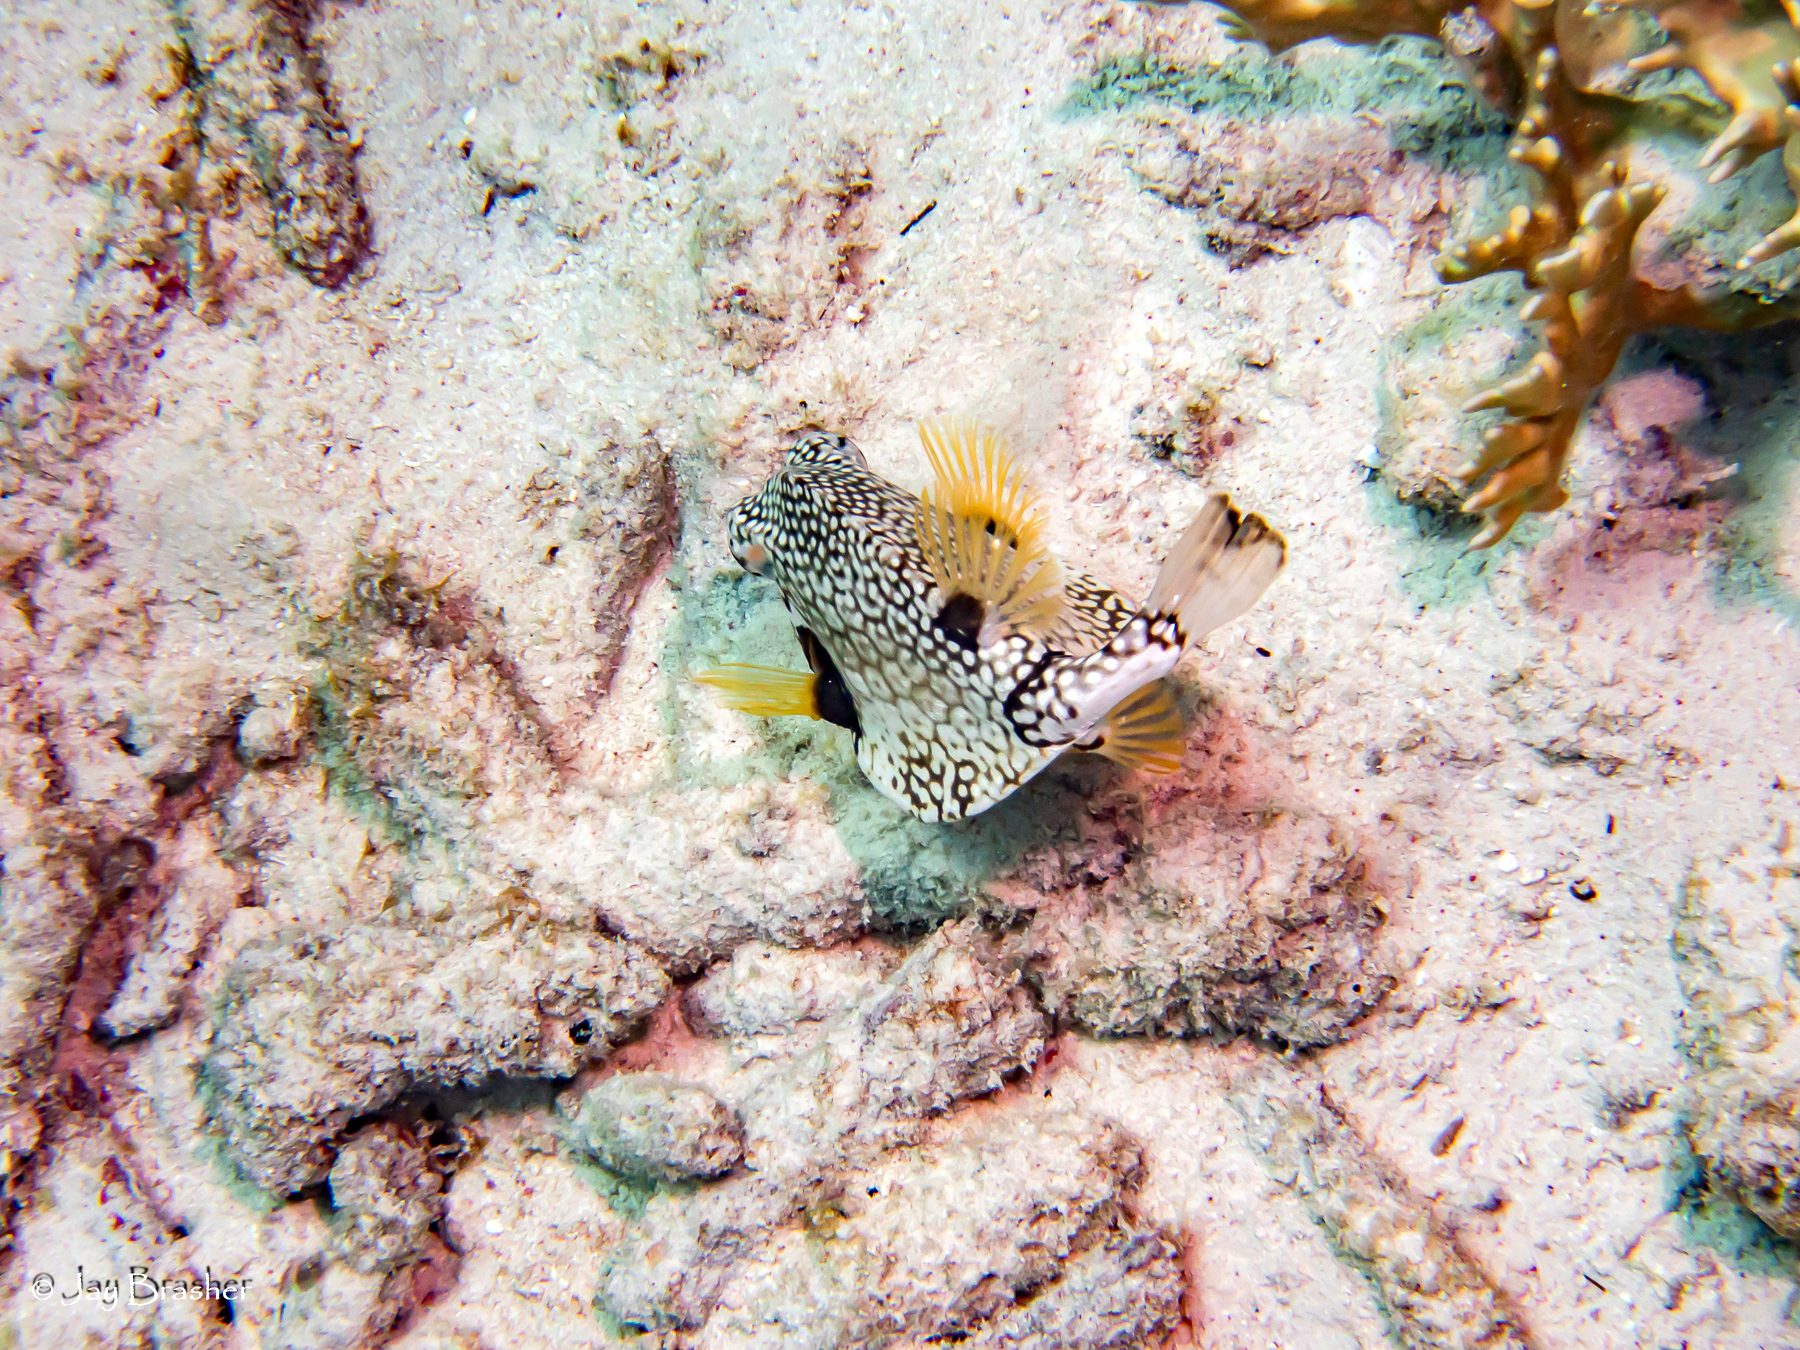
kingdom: Animalia
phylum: Chordata
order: Tetraodontiformes
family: Ostraciidae
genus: Lactophrys
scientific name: Lactophrys triqueter
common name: Smooth trunkfish
